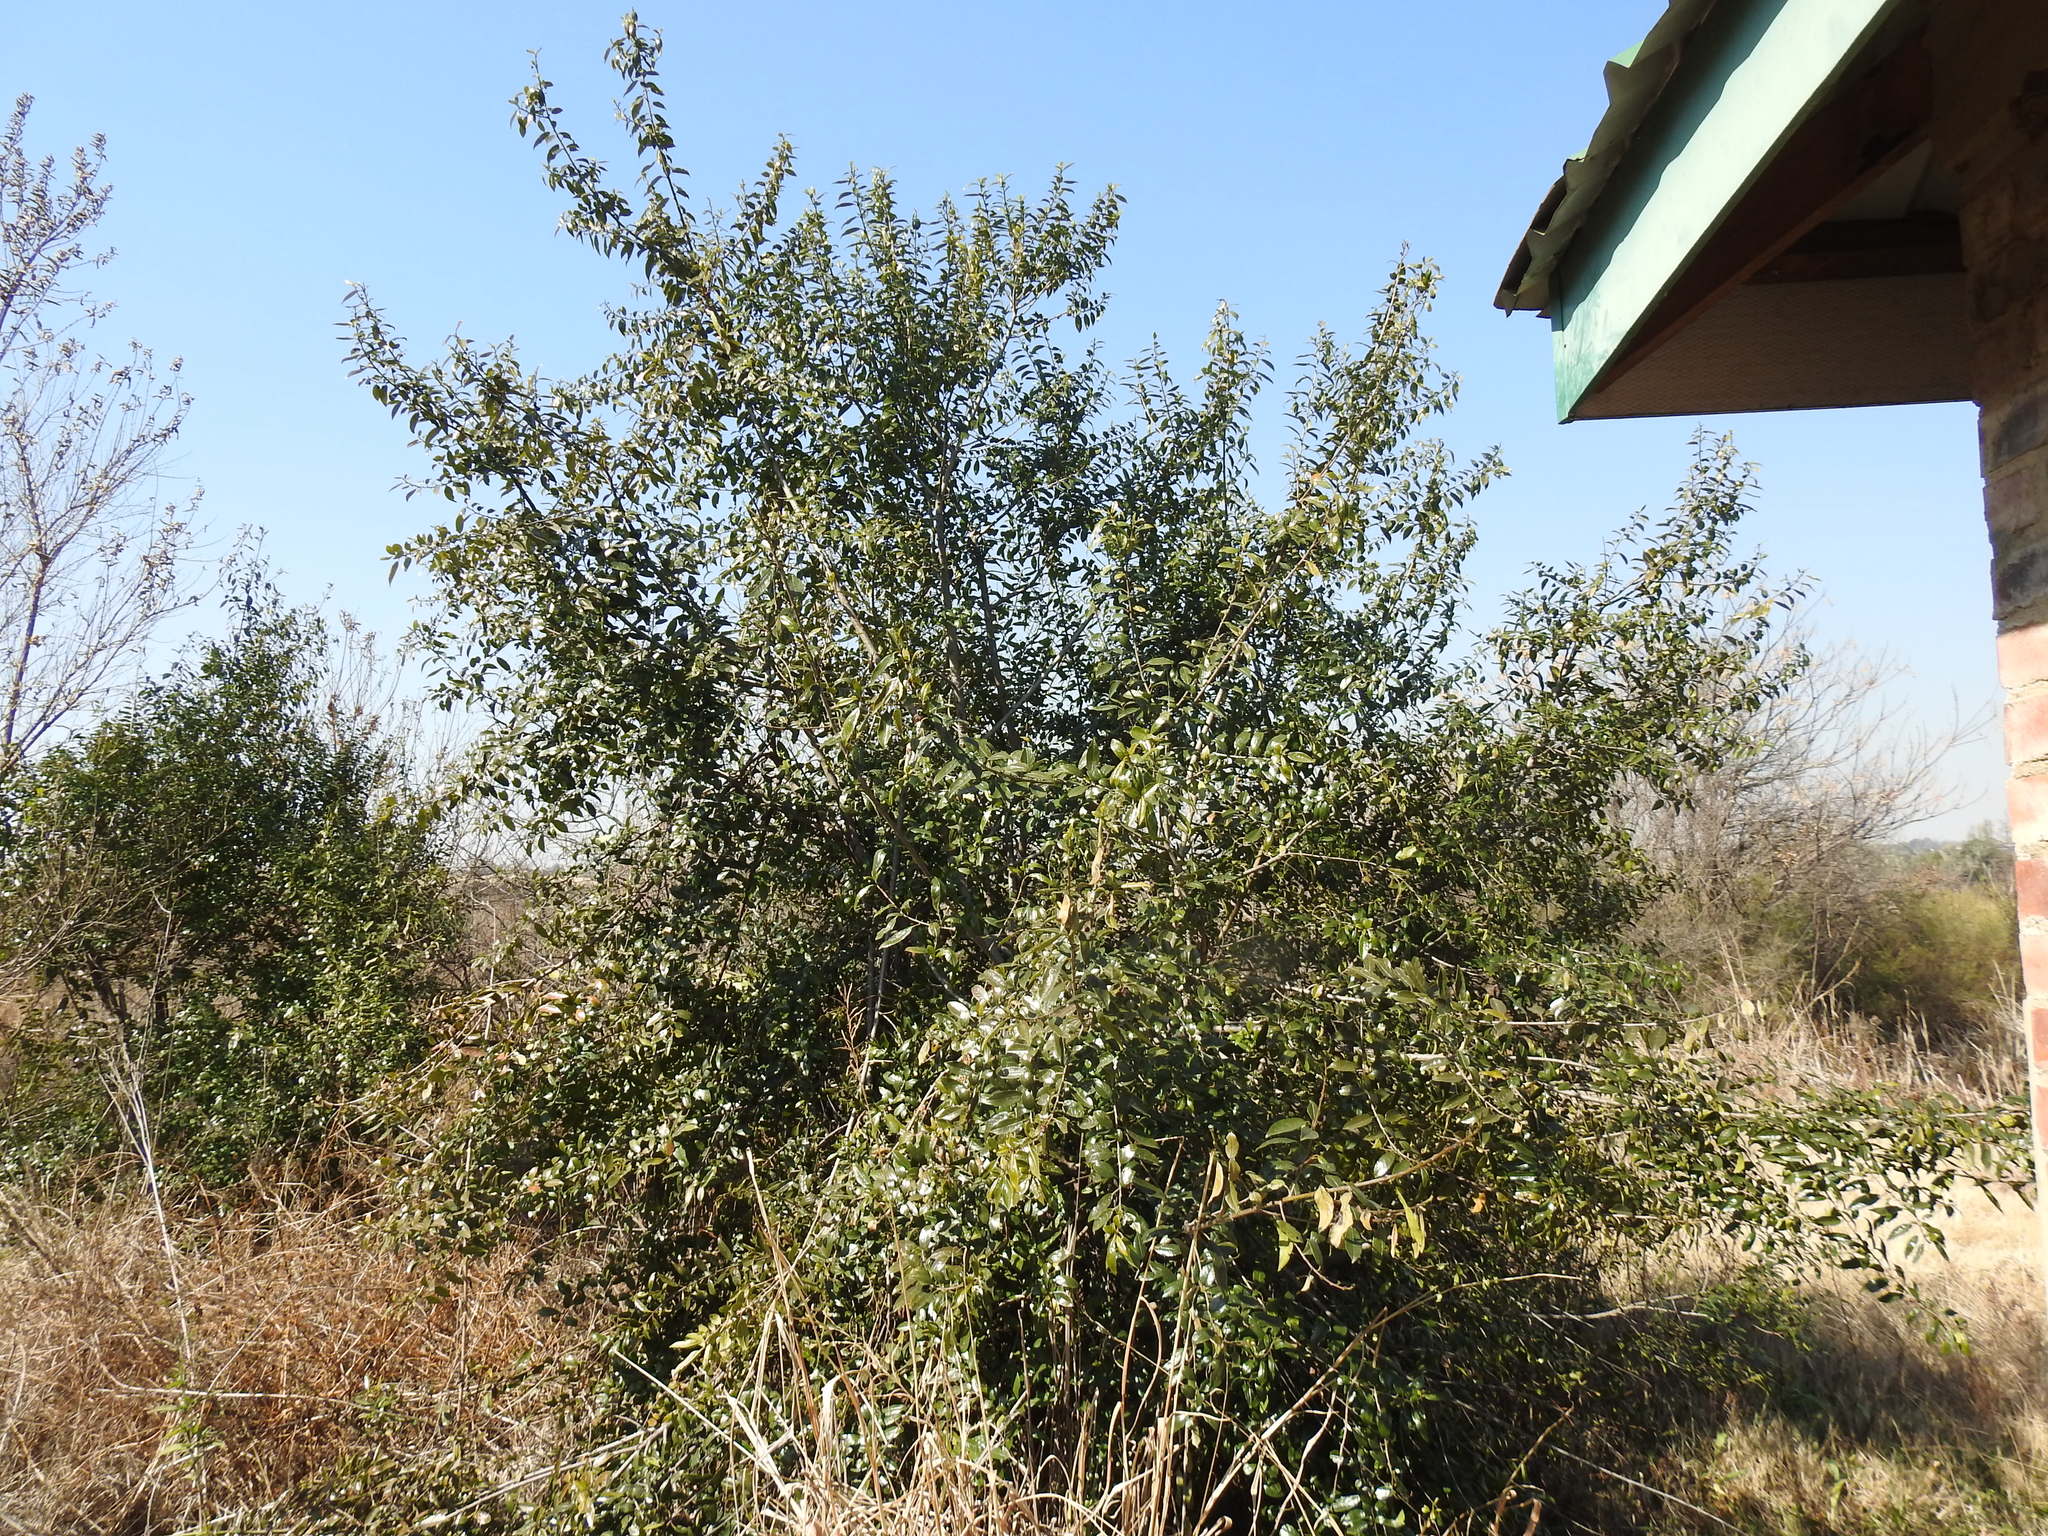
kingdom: Plantae
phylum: Tracheophyta
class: Magnoliopsida
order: Rosales
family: Rhamnaceae
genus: Rhamnus
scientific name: Rhamnus prinoides
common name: Dogwood
